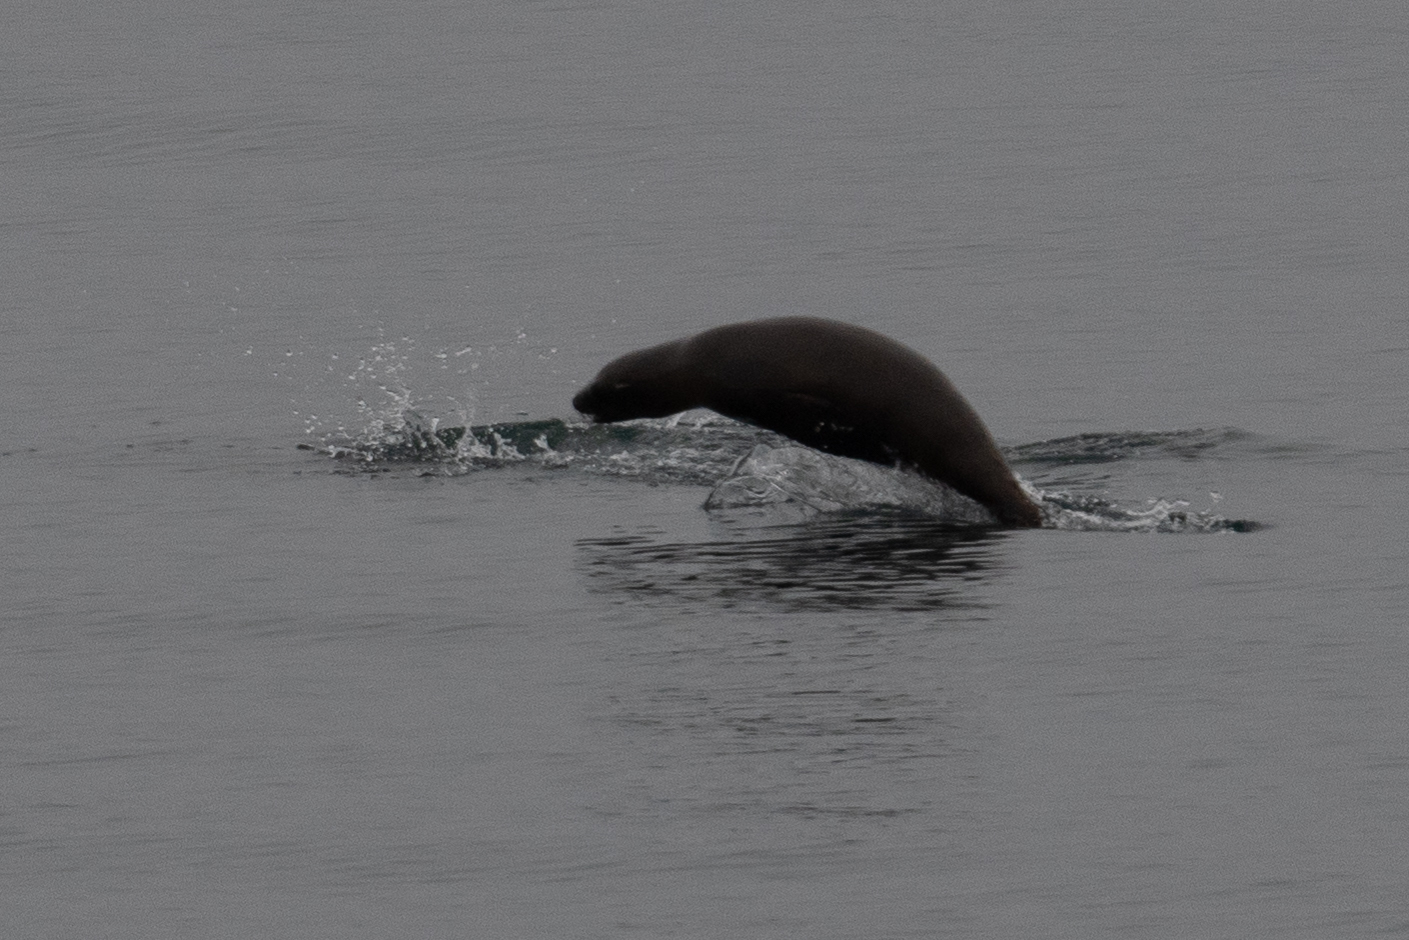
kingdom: Animalia
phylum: Chordata
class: Mammalia
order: Carnivora
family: Otariidae
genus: Zalophus
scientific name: Zalophus californianus
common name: California sea lion
